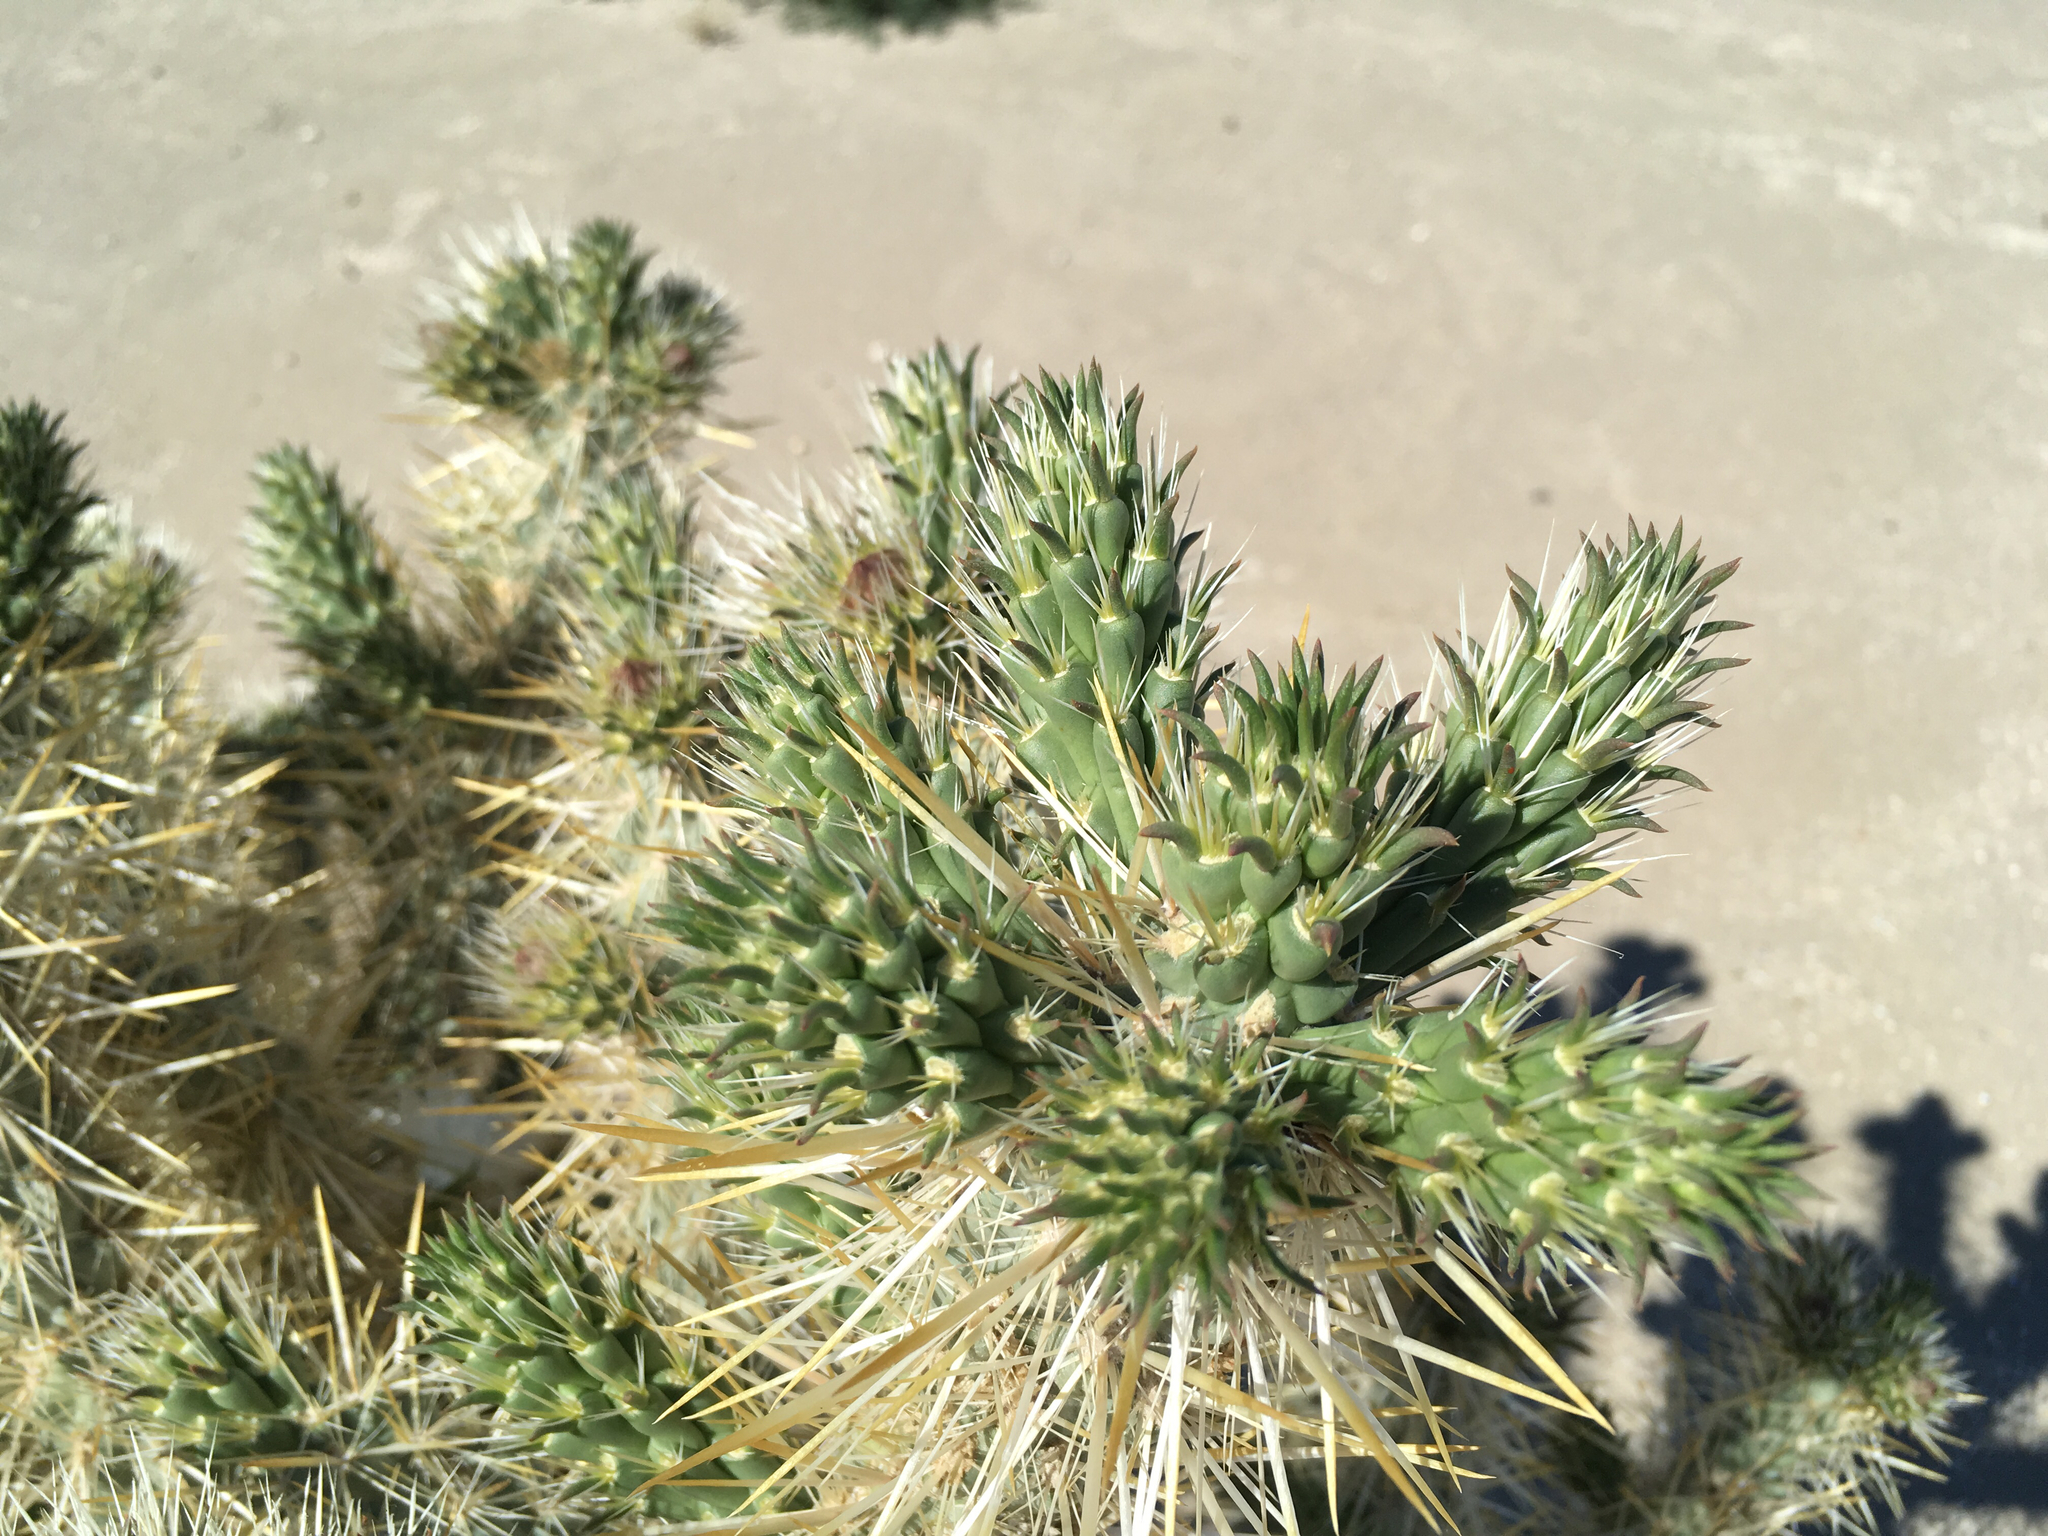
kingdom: Plantae
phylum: Tracheophyta
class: Magnoliopsida
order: Caryophyllales
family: Cactaceae
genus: Cylindropuntia
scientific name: Cylindropuntia echinocarpa
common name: Ground cholla
